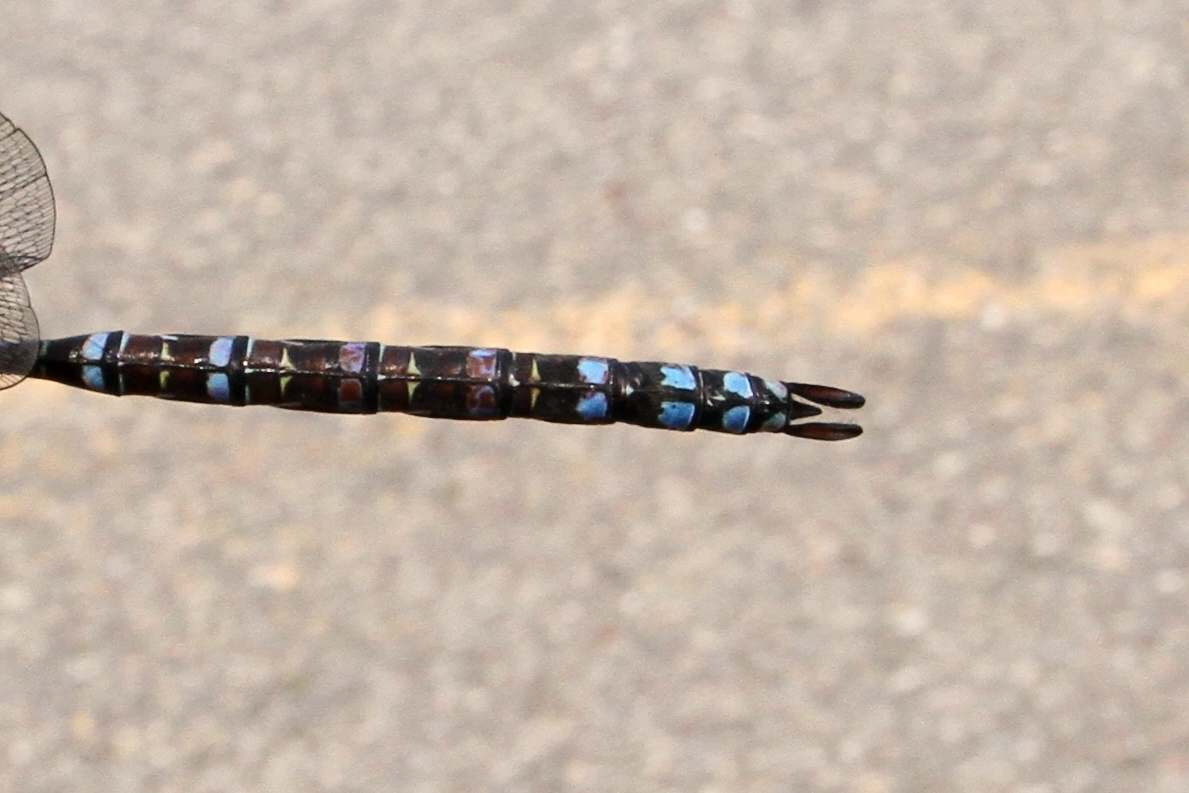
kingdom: Animalia
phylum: Arthropoda
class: Insecta
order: Odonata
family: Aeshnidae
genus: Aeshna
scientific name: Aeshna eremita
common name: Lake darner
